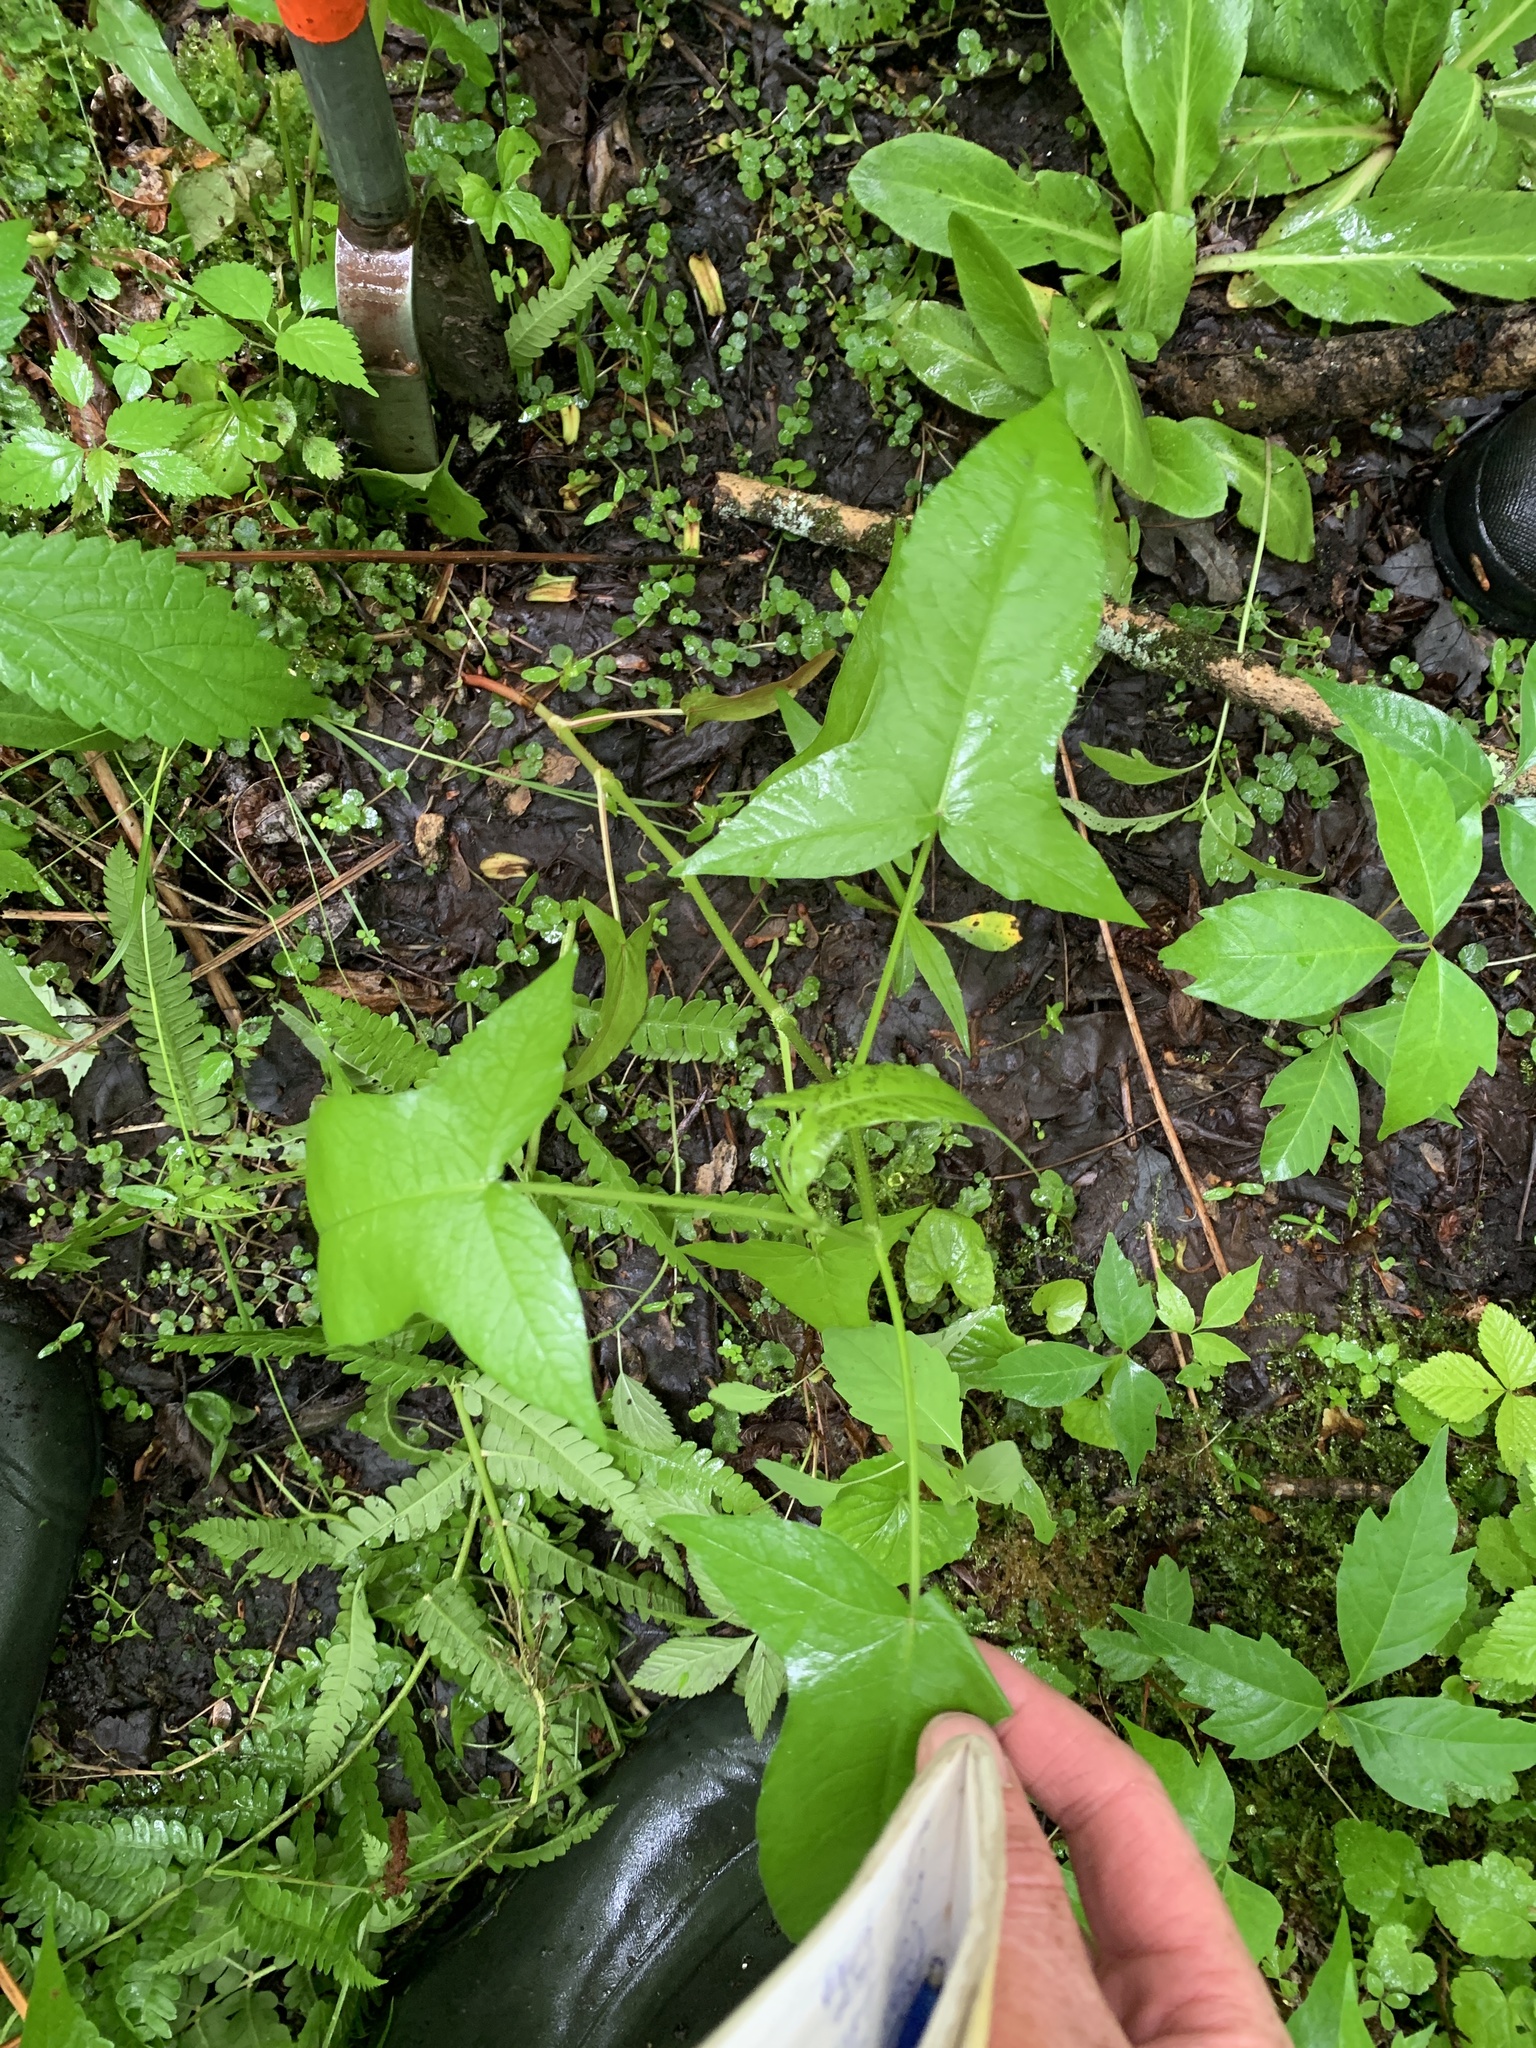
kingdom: Plantae
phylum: Tracheophyta
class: Magnoliopsida
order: Caryophyllales
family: Polygonaceae
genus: Persicaria
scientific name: Persicaria arifolia
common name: Halberd-leaved tear-thumb
